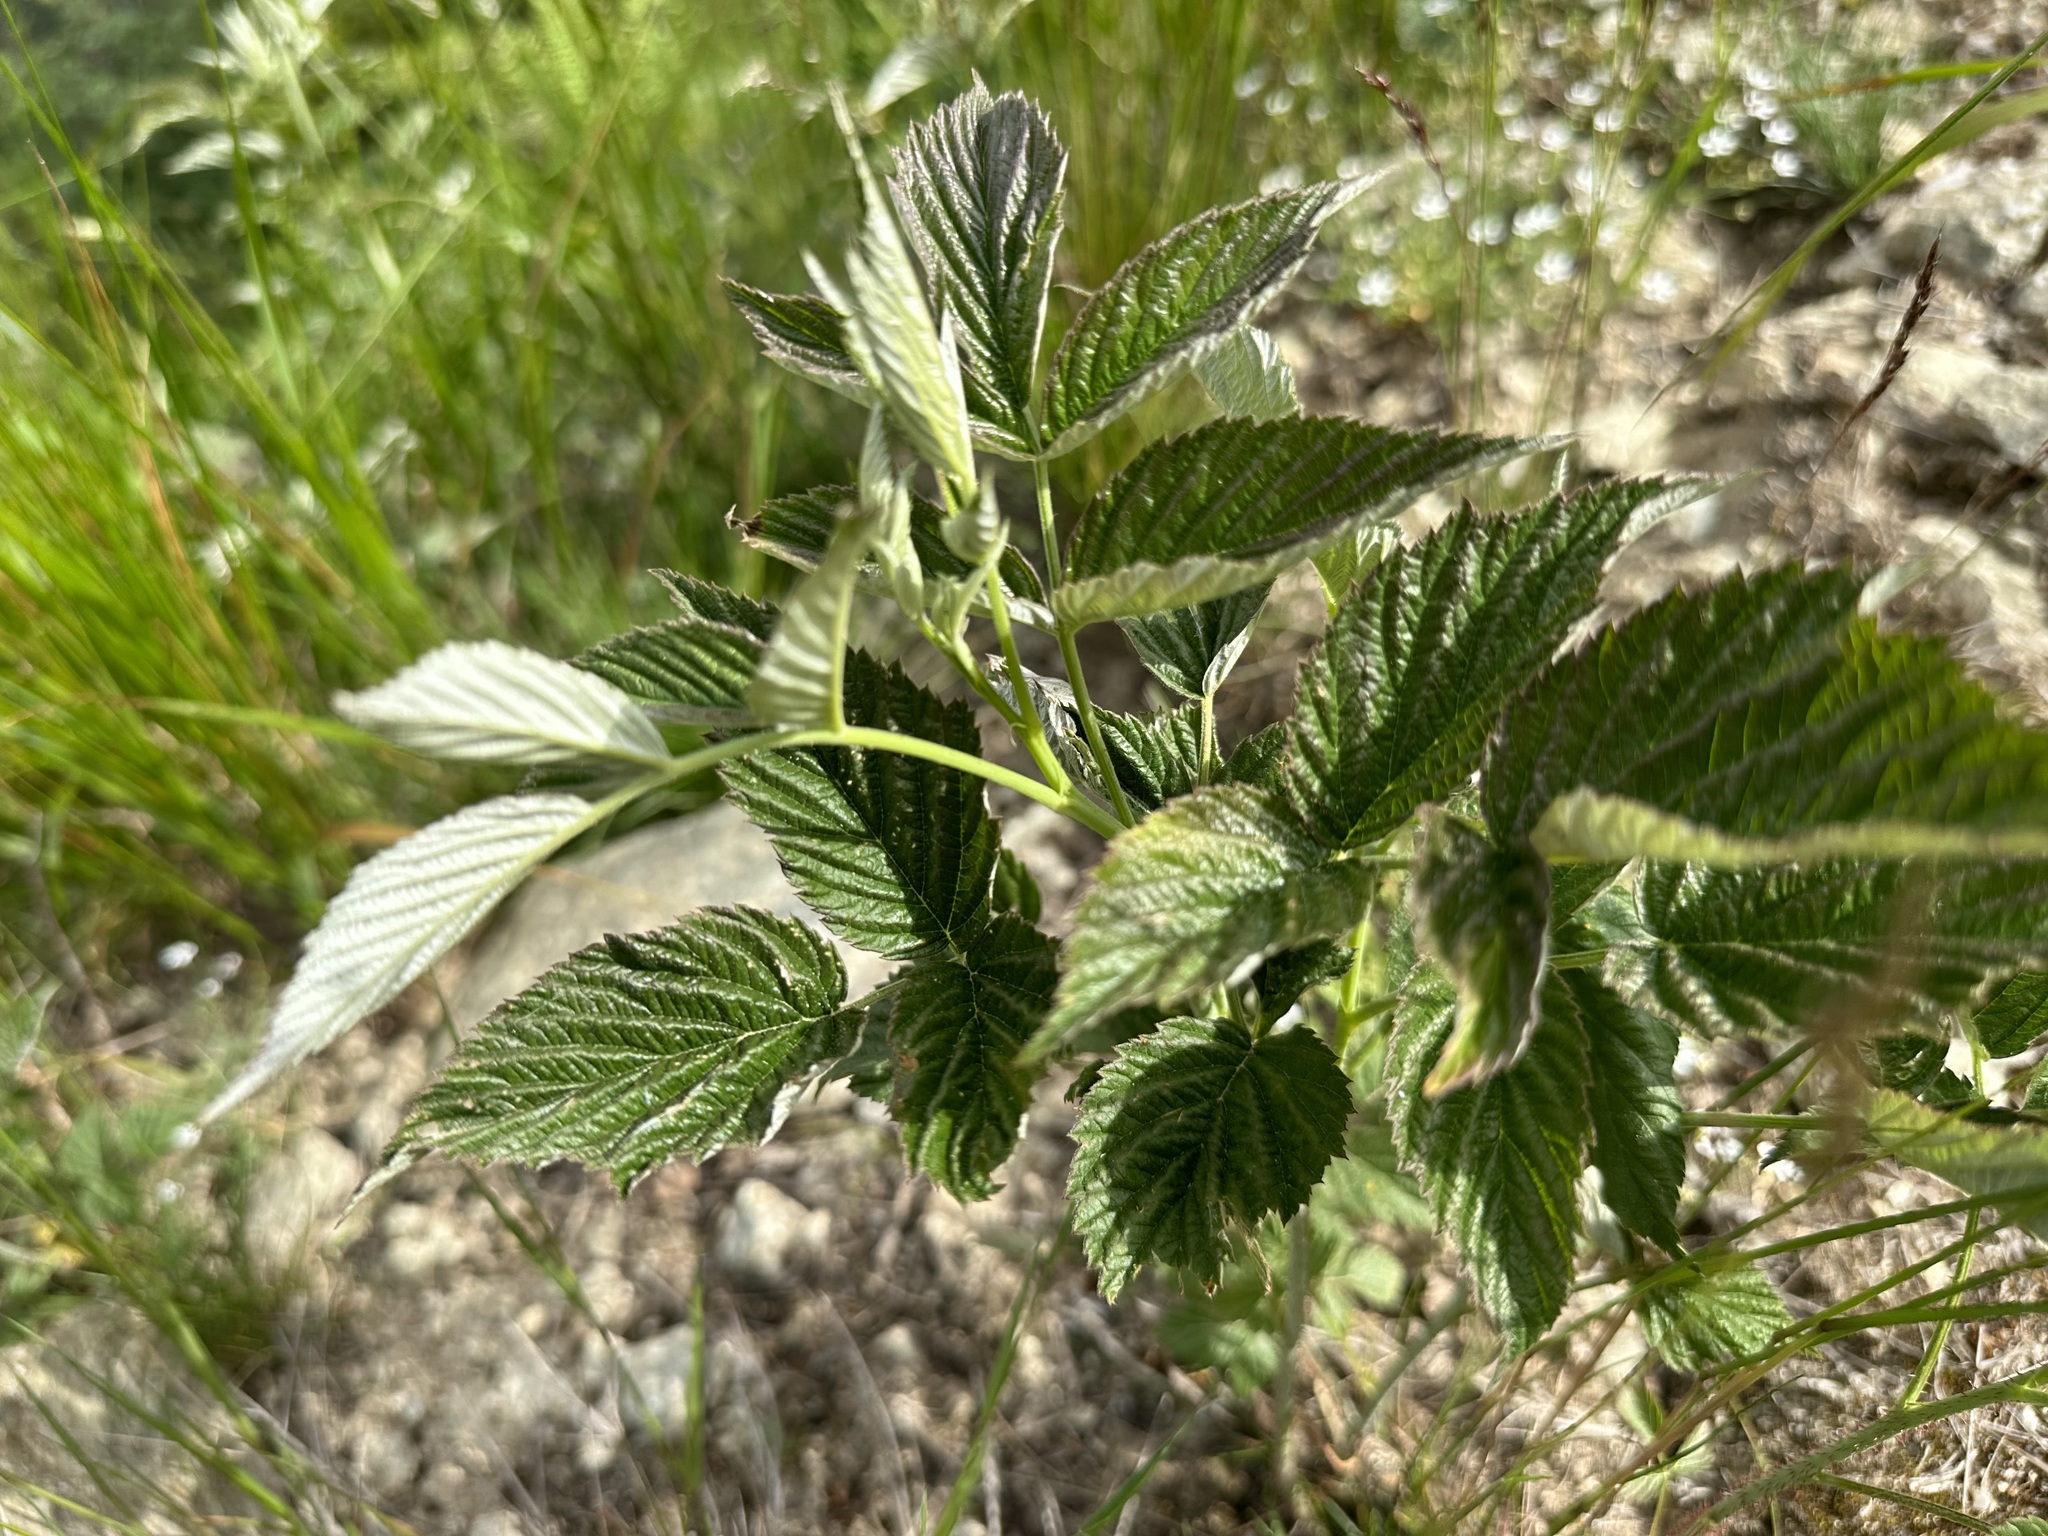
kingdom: Plantae
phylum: Tracheophyta
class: Magnoliopsida
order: Rosales
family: Rosaceae
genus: Rubus
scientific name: Rubus idaeus
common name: Raspberry
